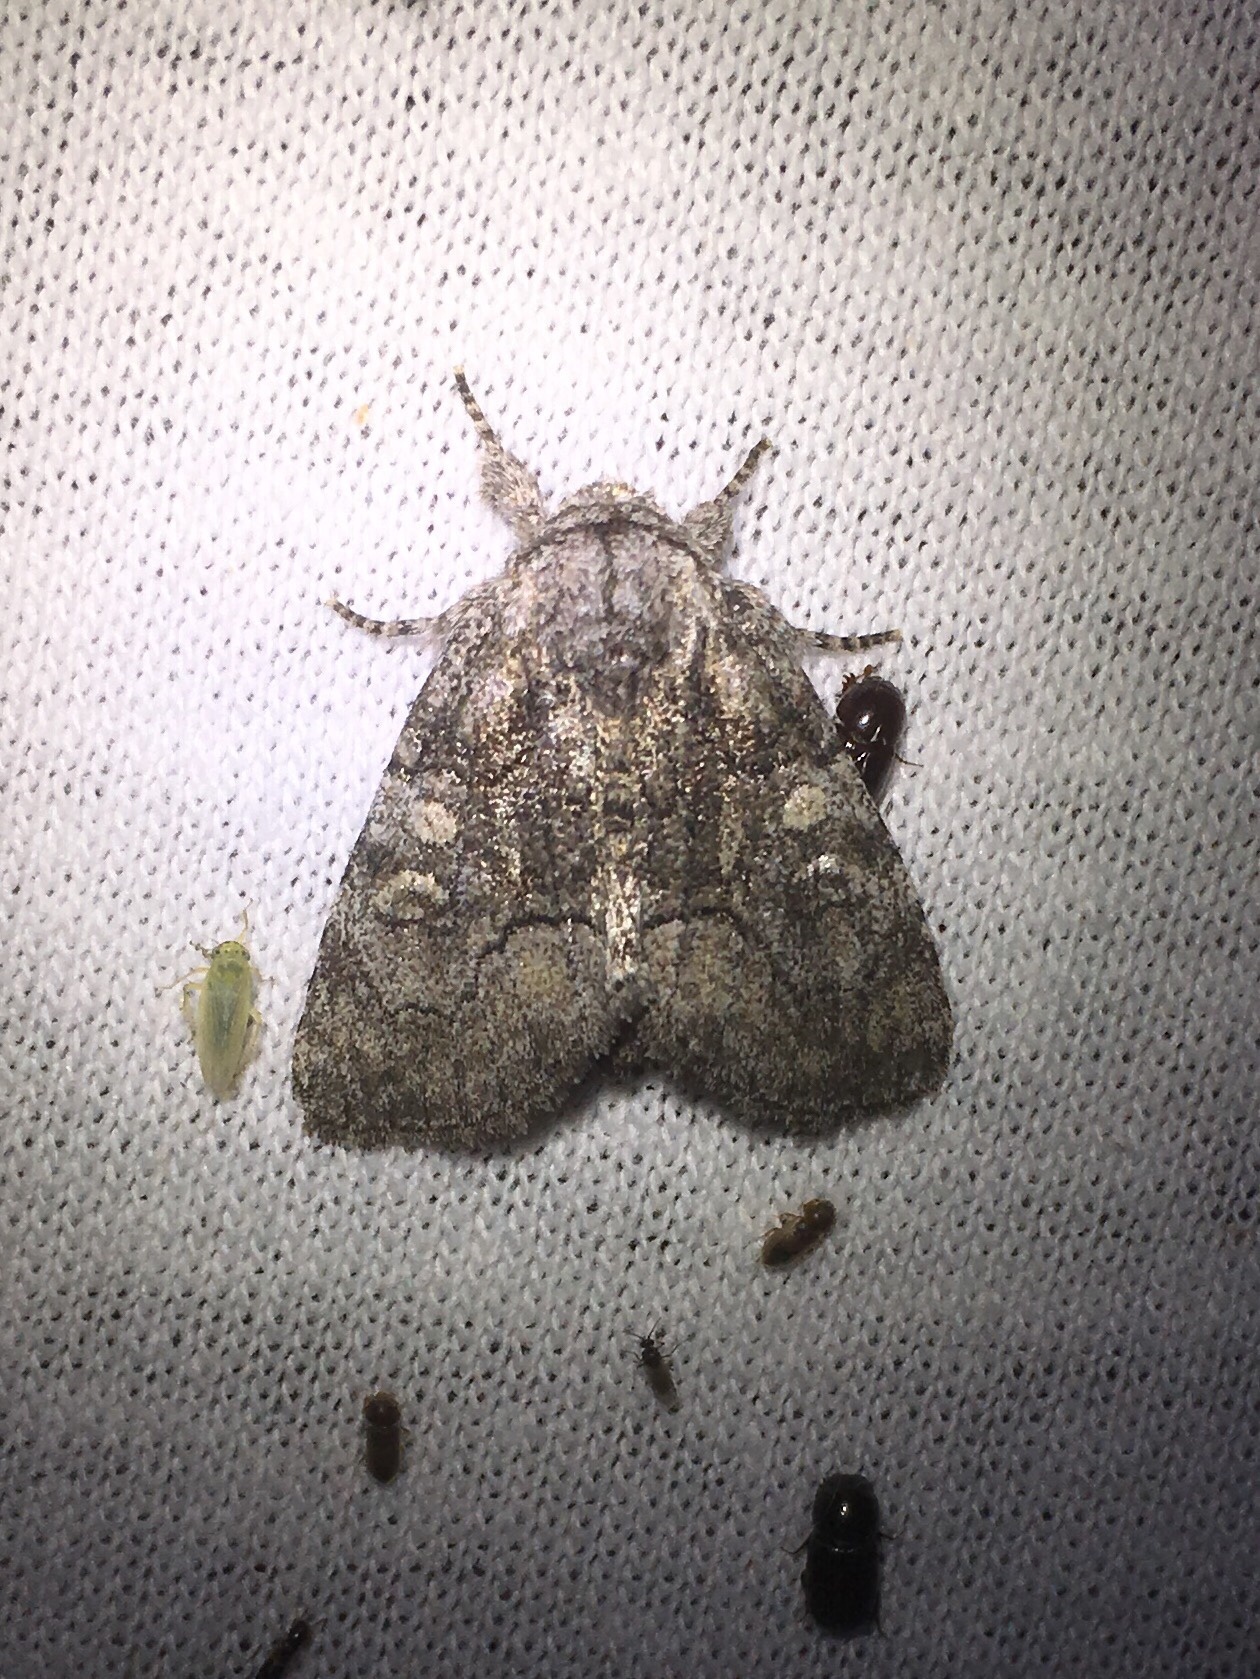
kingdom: Animalia
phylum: Arthropoda
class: Insecta
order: Lepidoptera
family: Noctuidae
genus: Raphia
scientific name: Raphia frater
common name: Brother
